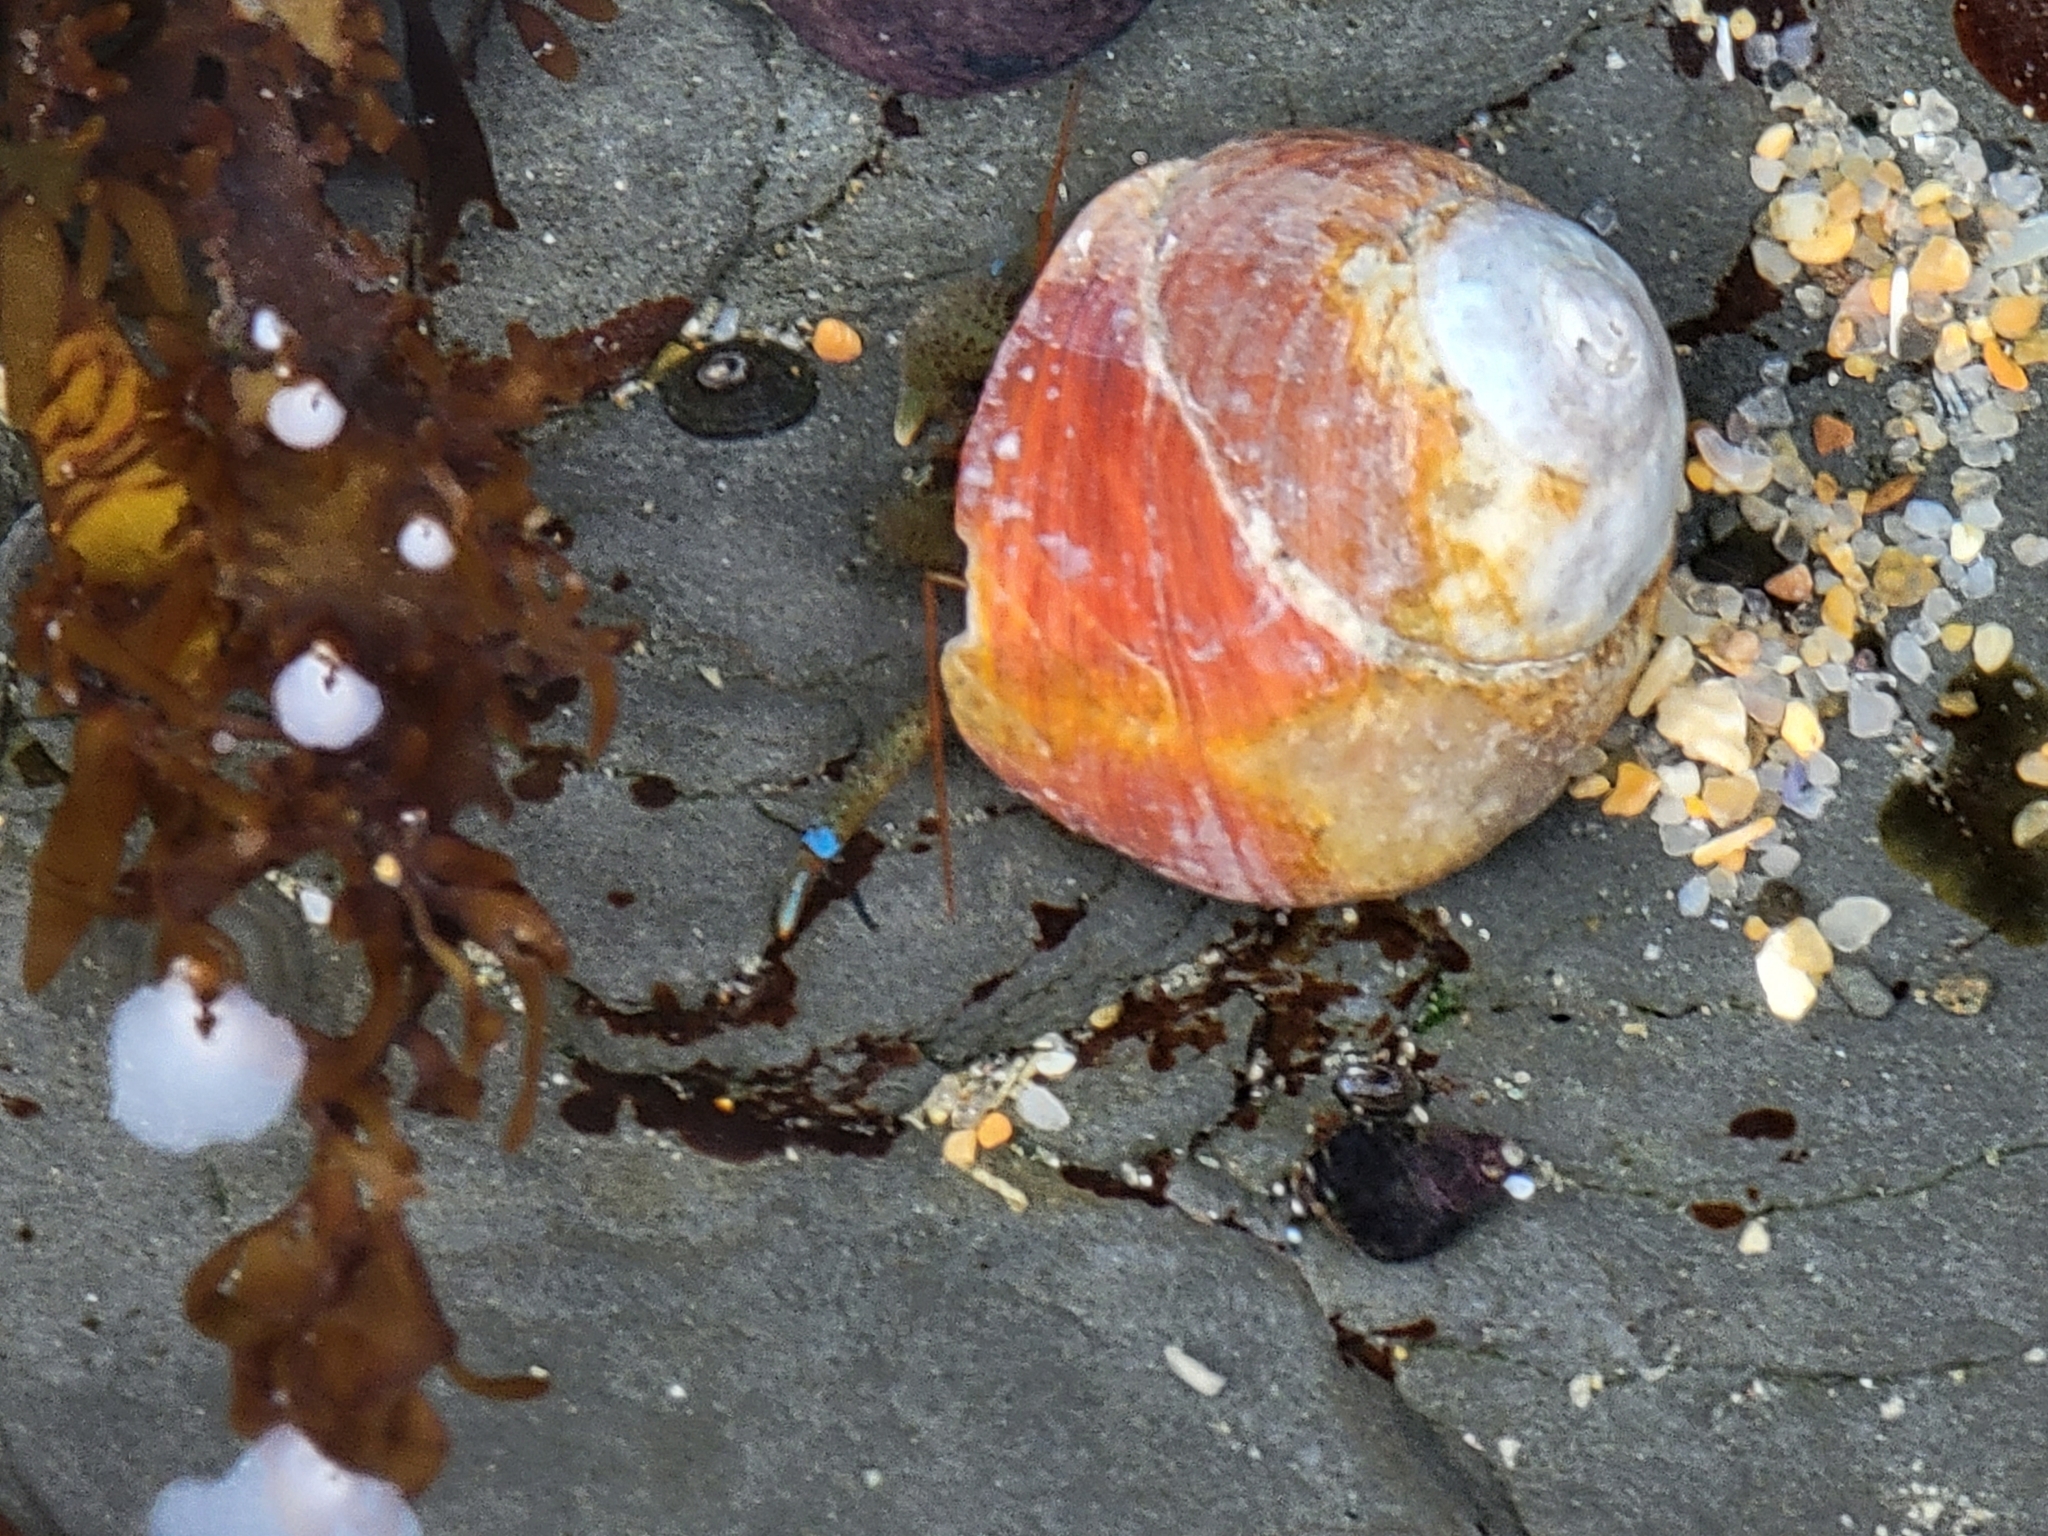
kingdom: Animalia
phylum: Arthropoda
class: Malacostraca
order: Decapoda
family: Paguridae
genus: Pagurus
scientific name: Pagurus samuelis
